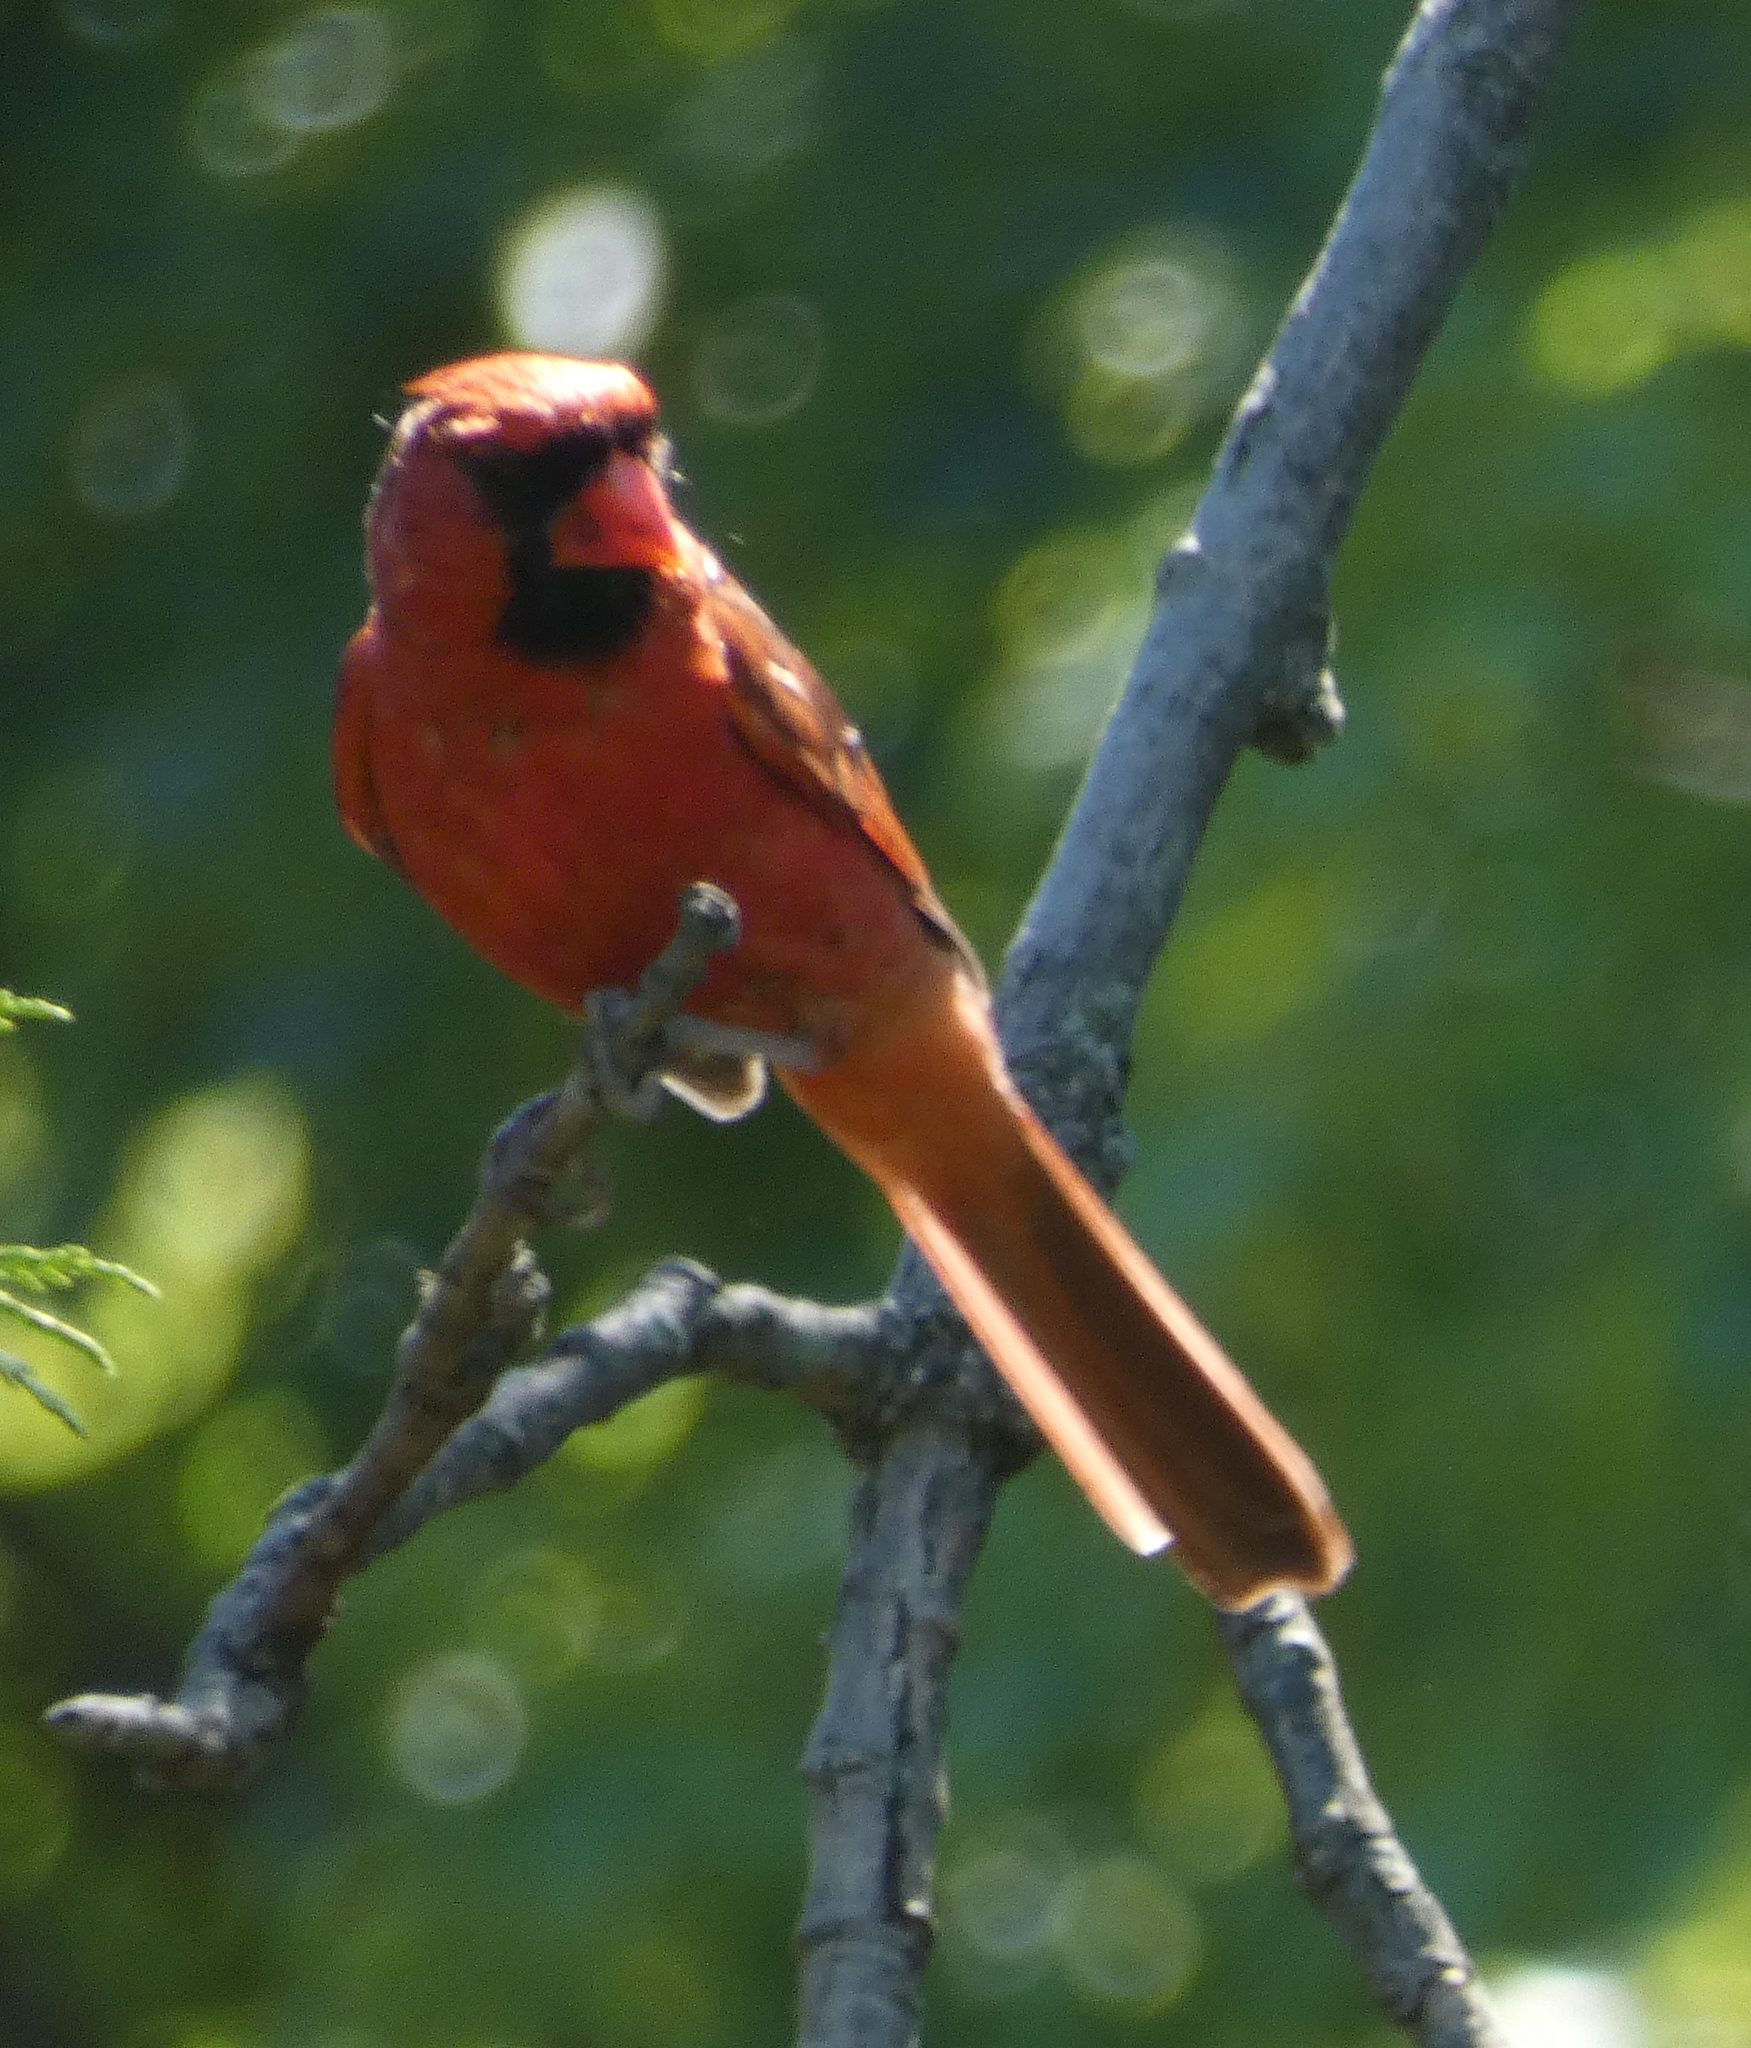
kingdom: Animalia
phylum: Chordata
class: Aves
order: Passeriformes
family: Cardinalidae
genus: Cardinalis
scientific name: Cardinalis cardinalis
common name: Northern cardinal
